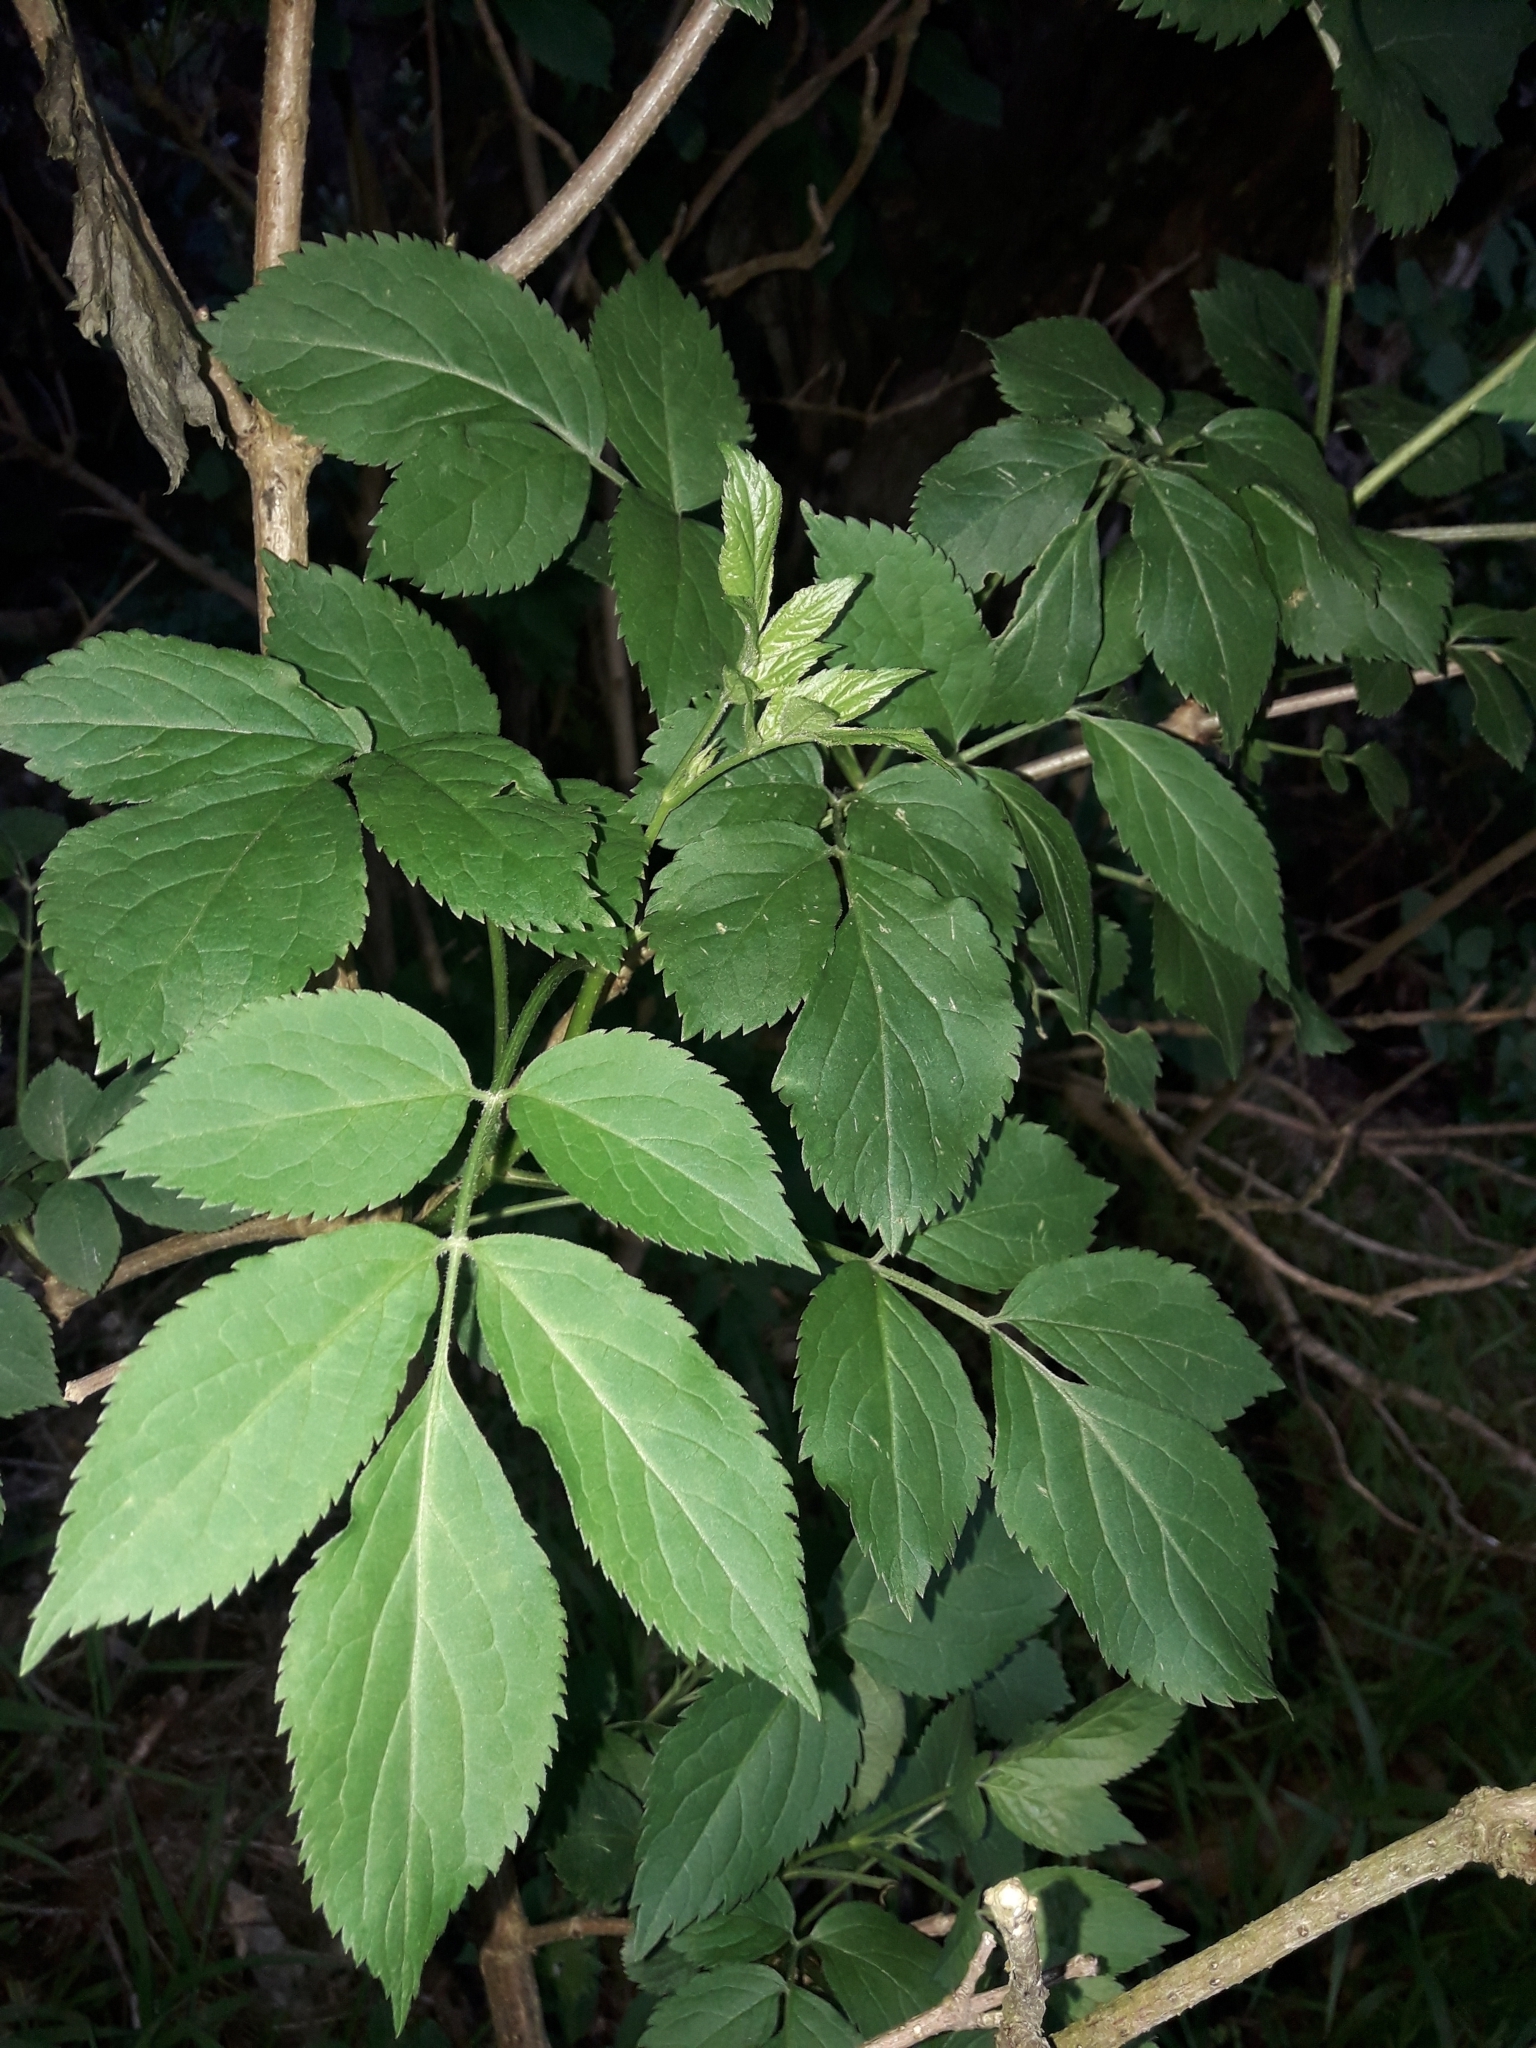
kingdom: Plantae
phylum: Tracheophyta
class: Magnoliopsida
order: Dipsacales
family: Viburnaceae
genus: Sambucus
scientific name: Sambucus nigra
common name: Elder
